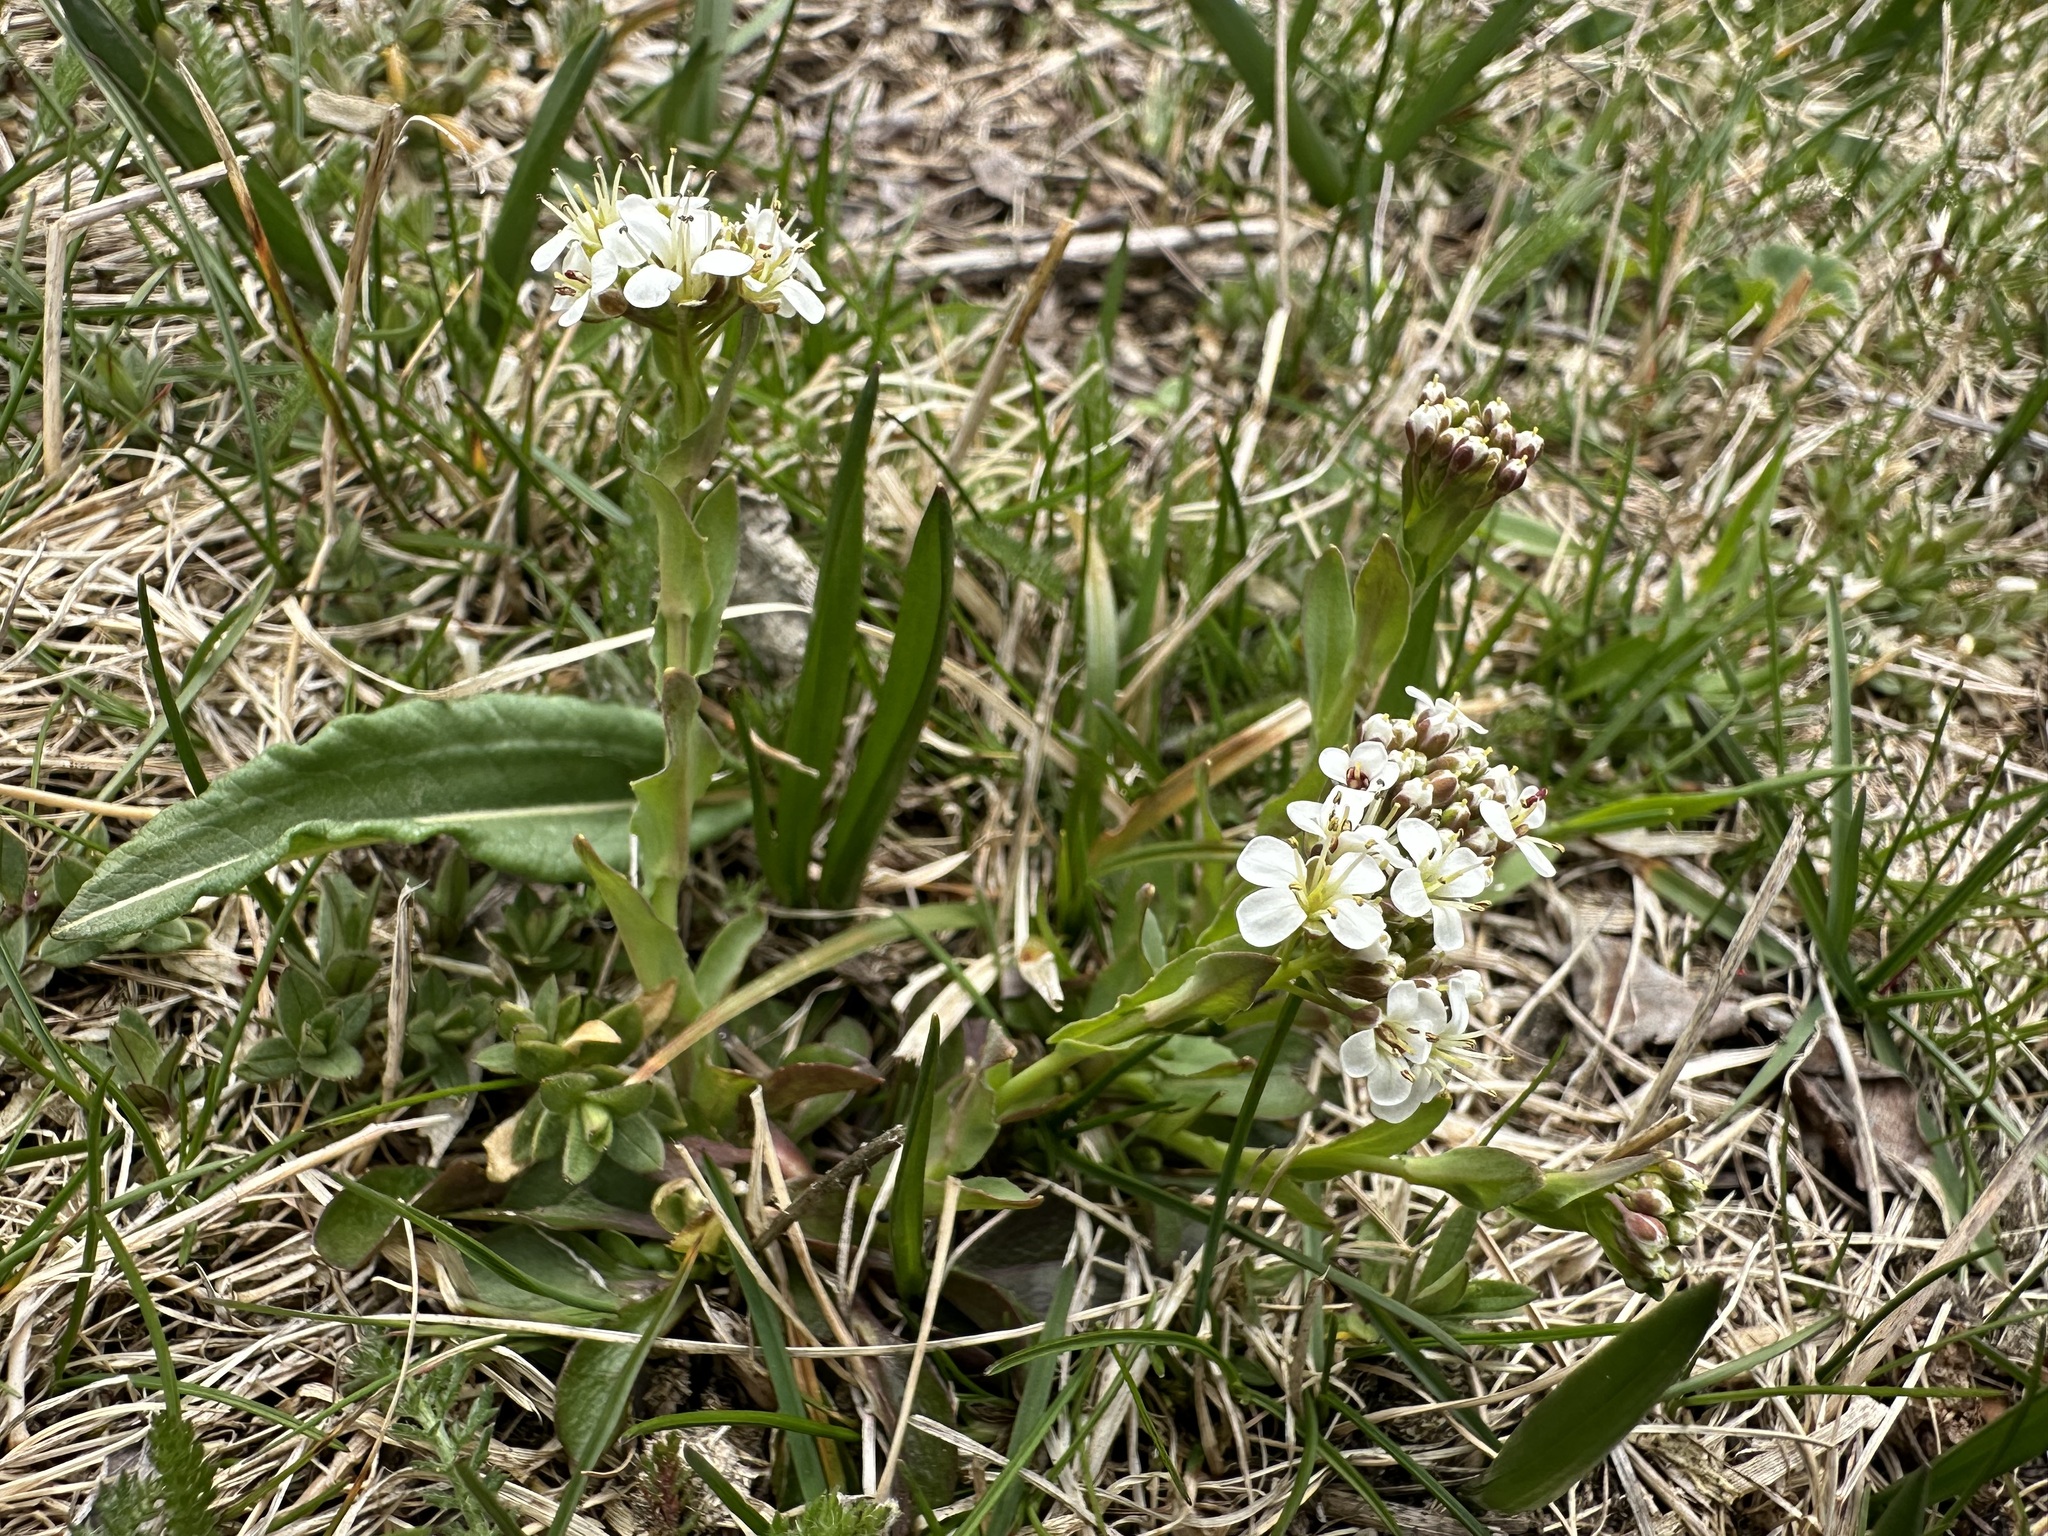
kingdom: Plantae
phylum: Tracheophyta
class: Magnoliopsida
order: Brassicales
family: Brassicaceae
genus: Noccaea
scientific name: Noccaea caerulescens
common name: Alpine pennycress
